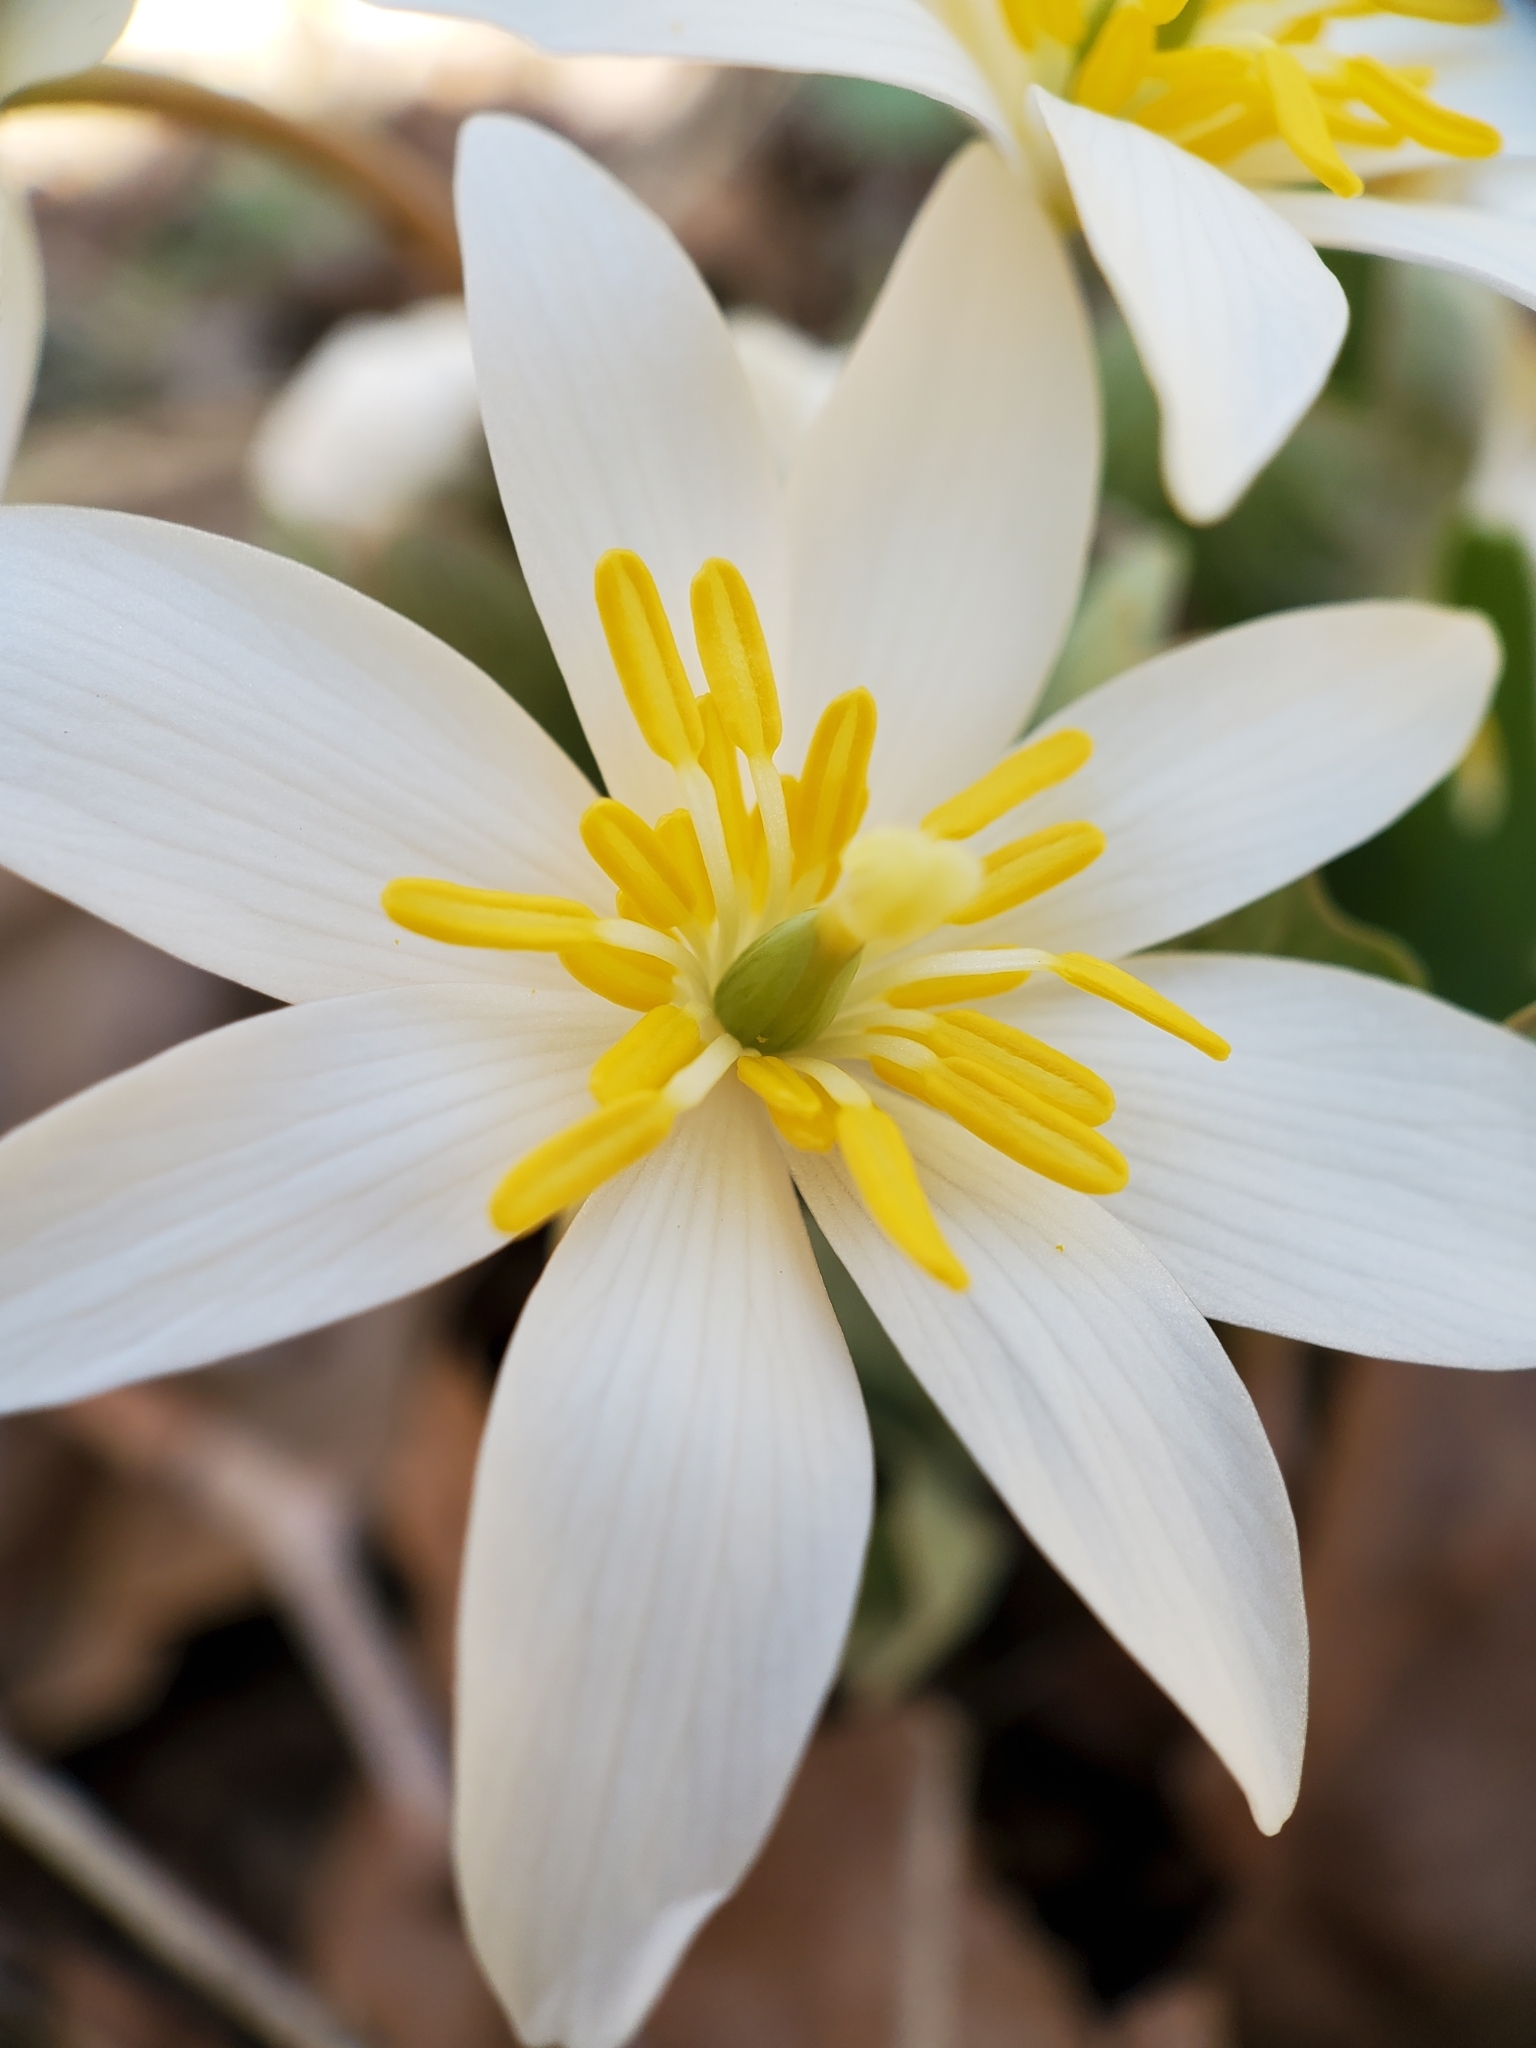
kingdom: Plantae
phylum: Tracheophyta
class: Magnoliopsida
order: Ranunculales
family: Papaveraceae
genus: Sanguinaria
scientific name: Sanguinaria canadensis
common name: Bloodroot
